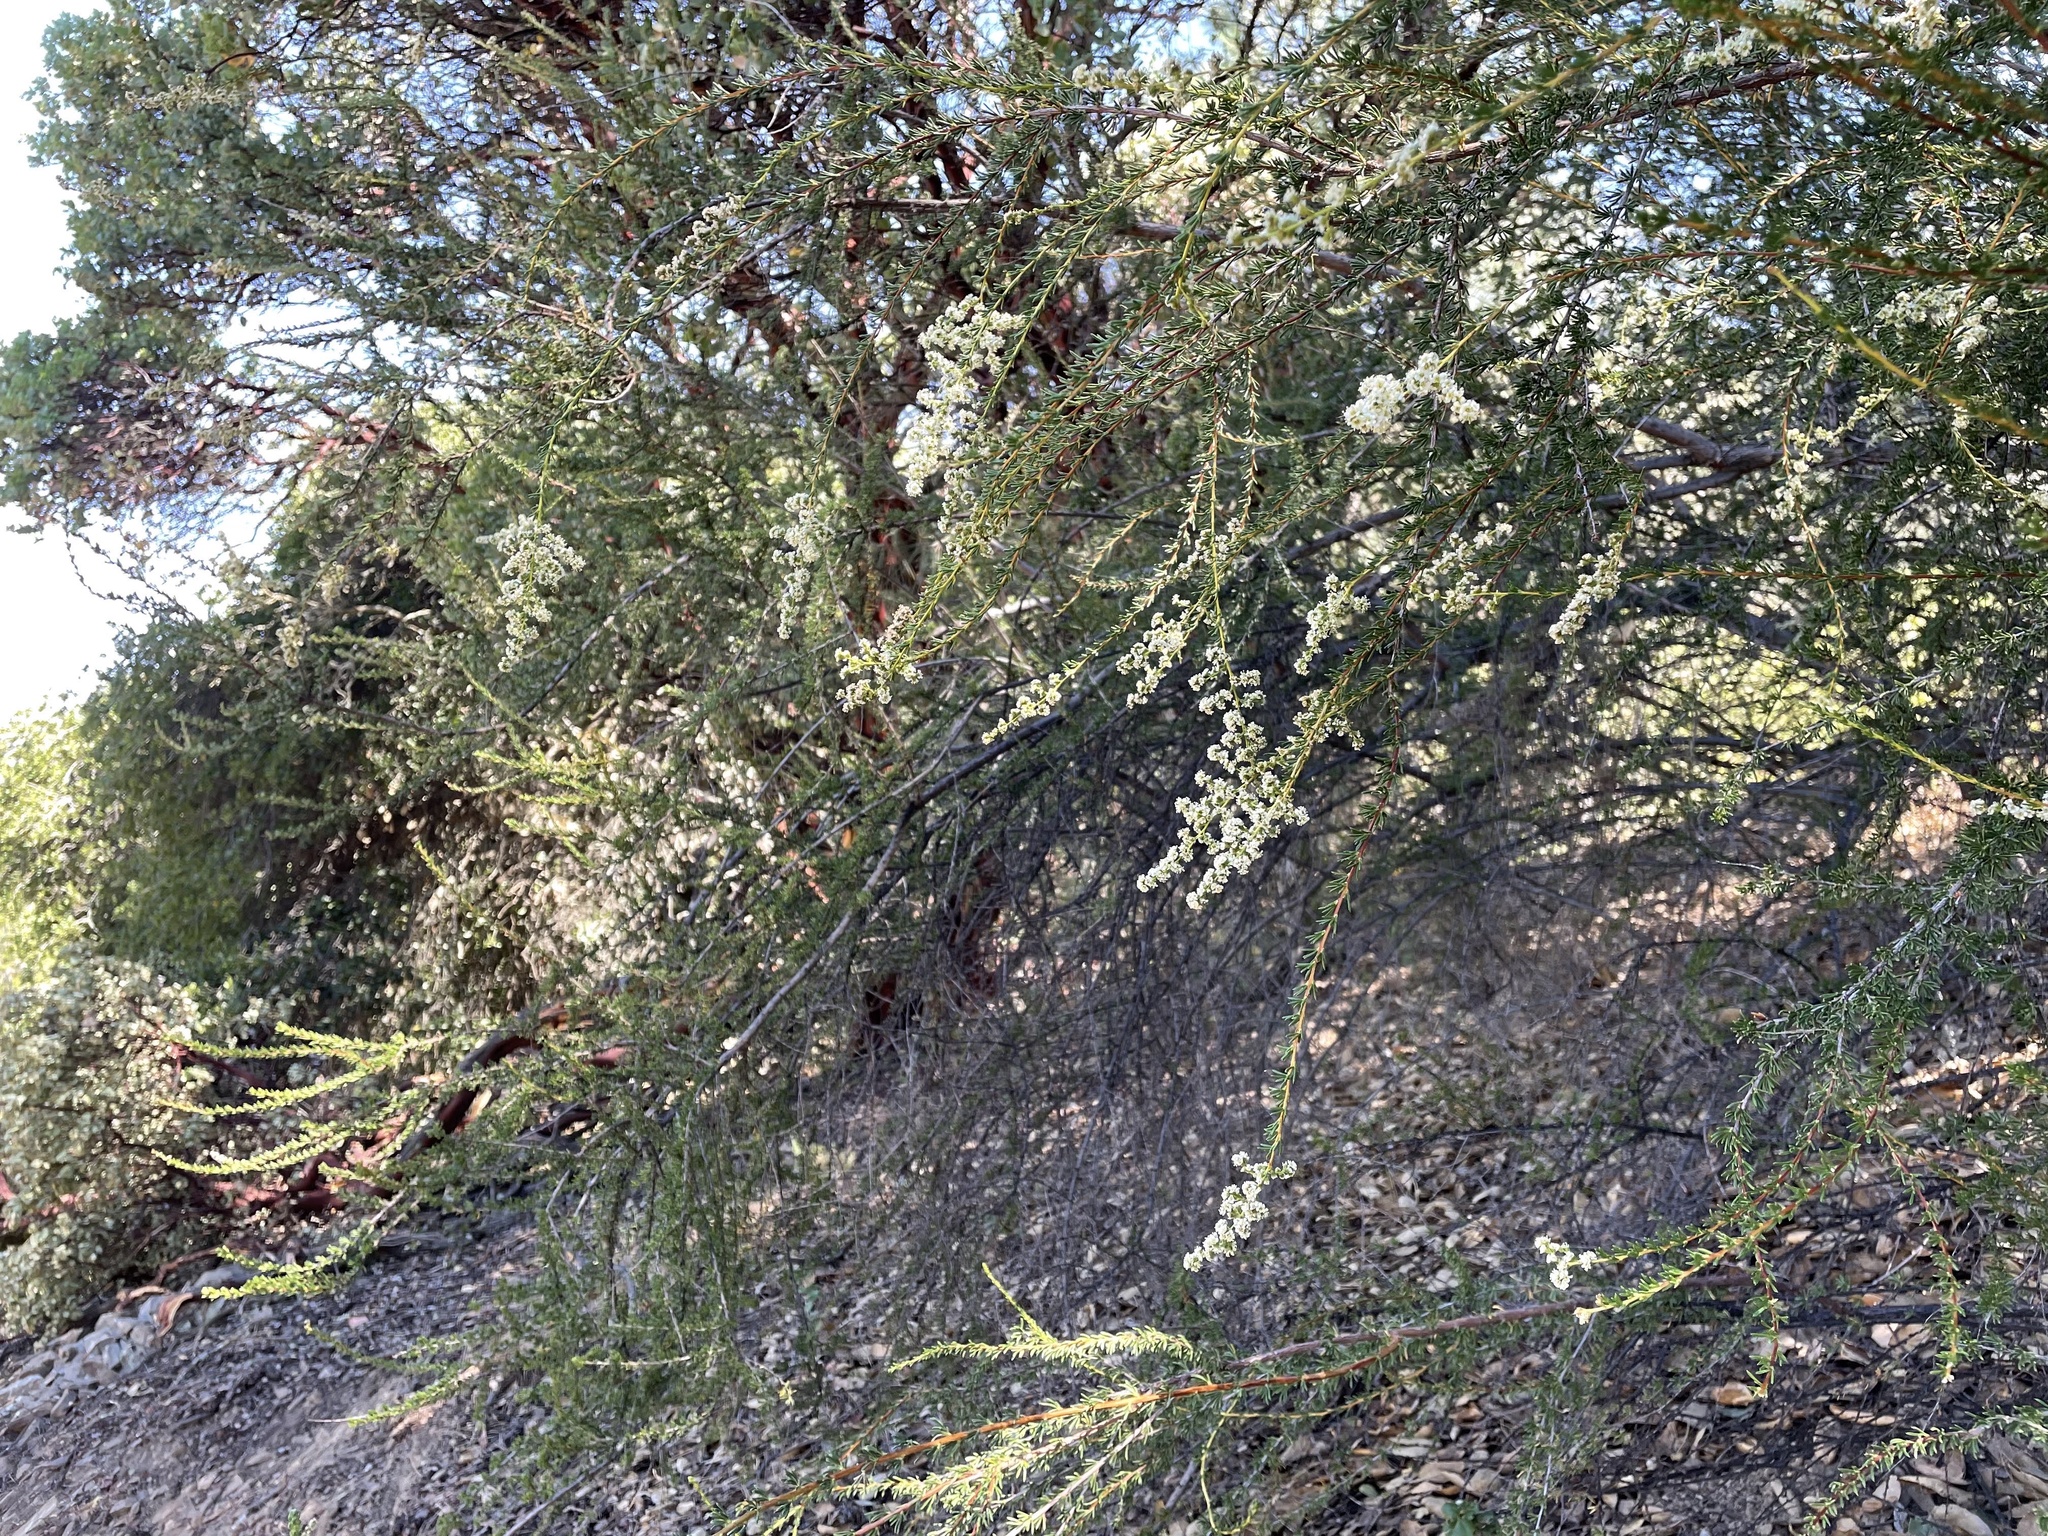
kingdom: Plantae
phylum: Tracheophyta
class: Magnoliopsida
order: Rosales
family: Rosaceae
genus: Adenostoma
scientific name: Adenostoma fasciculatum
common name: Chamise
